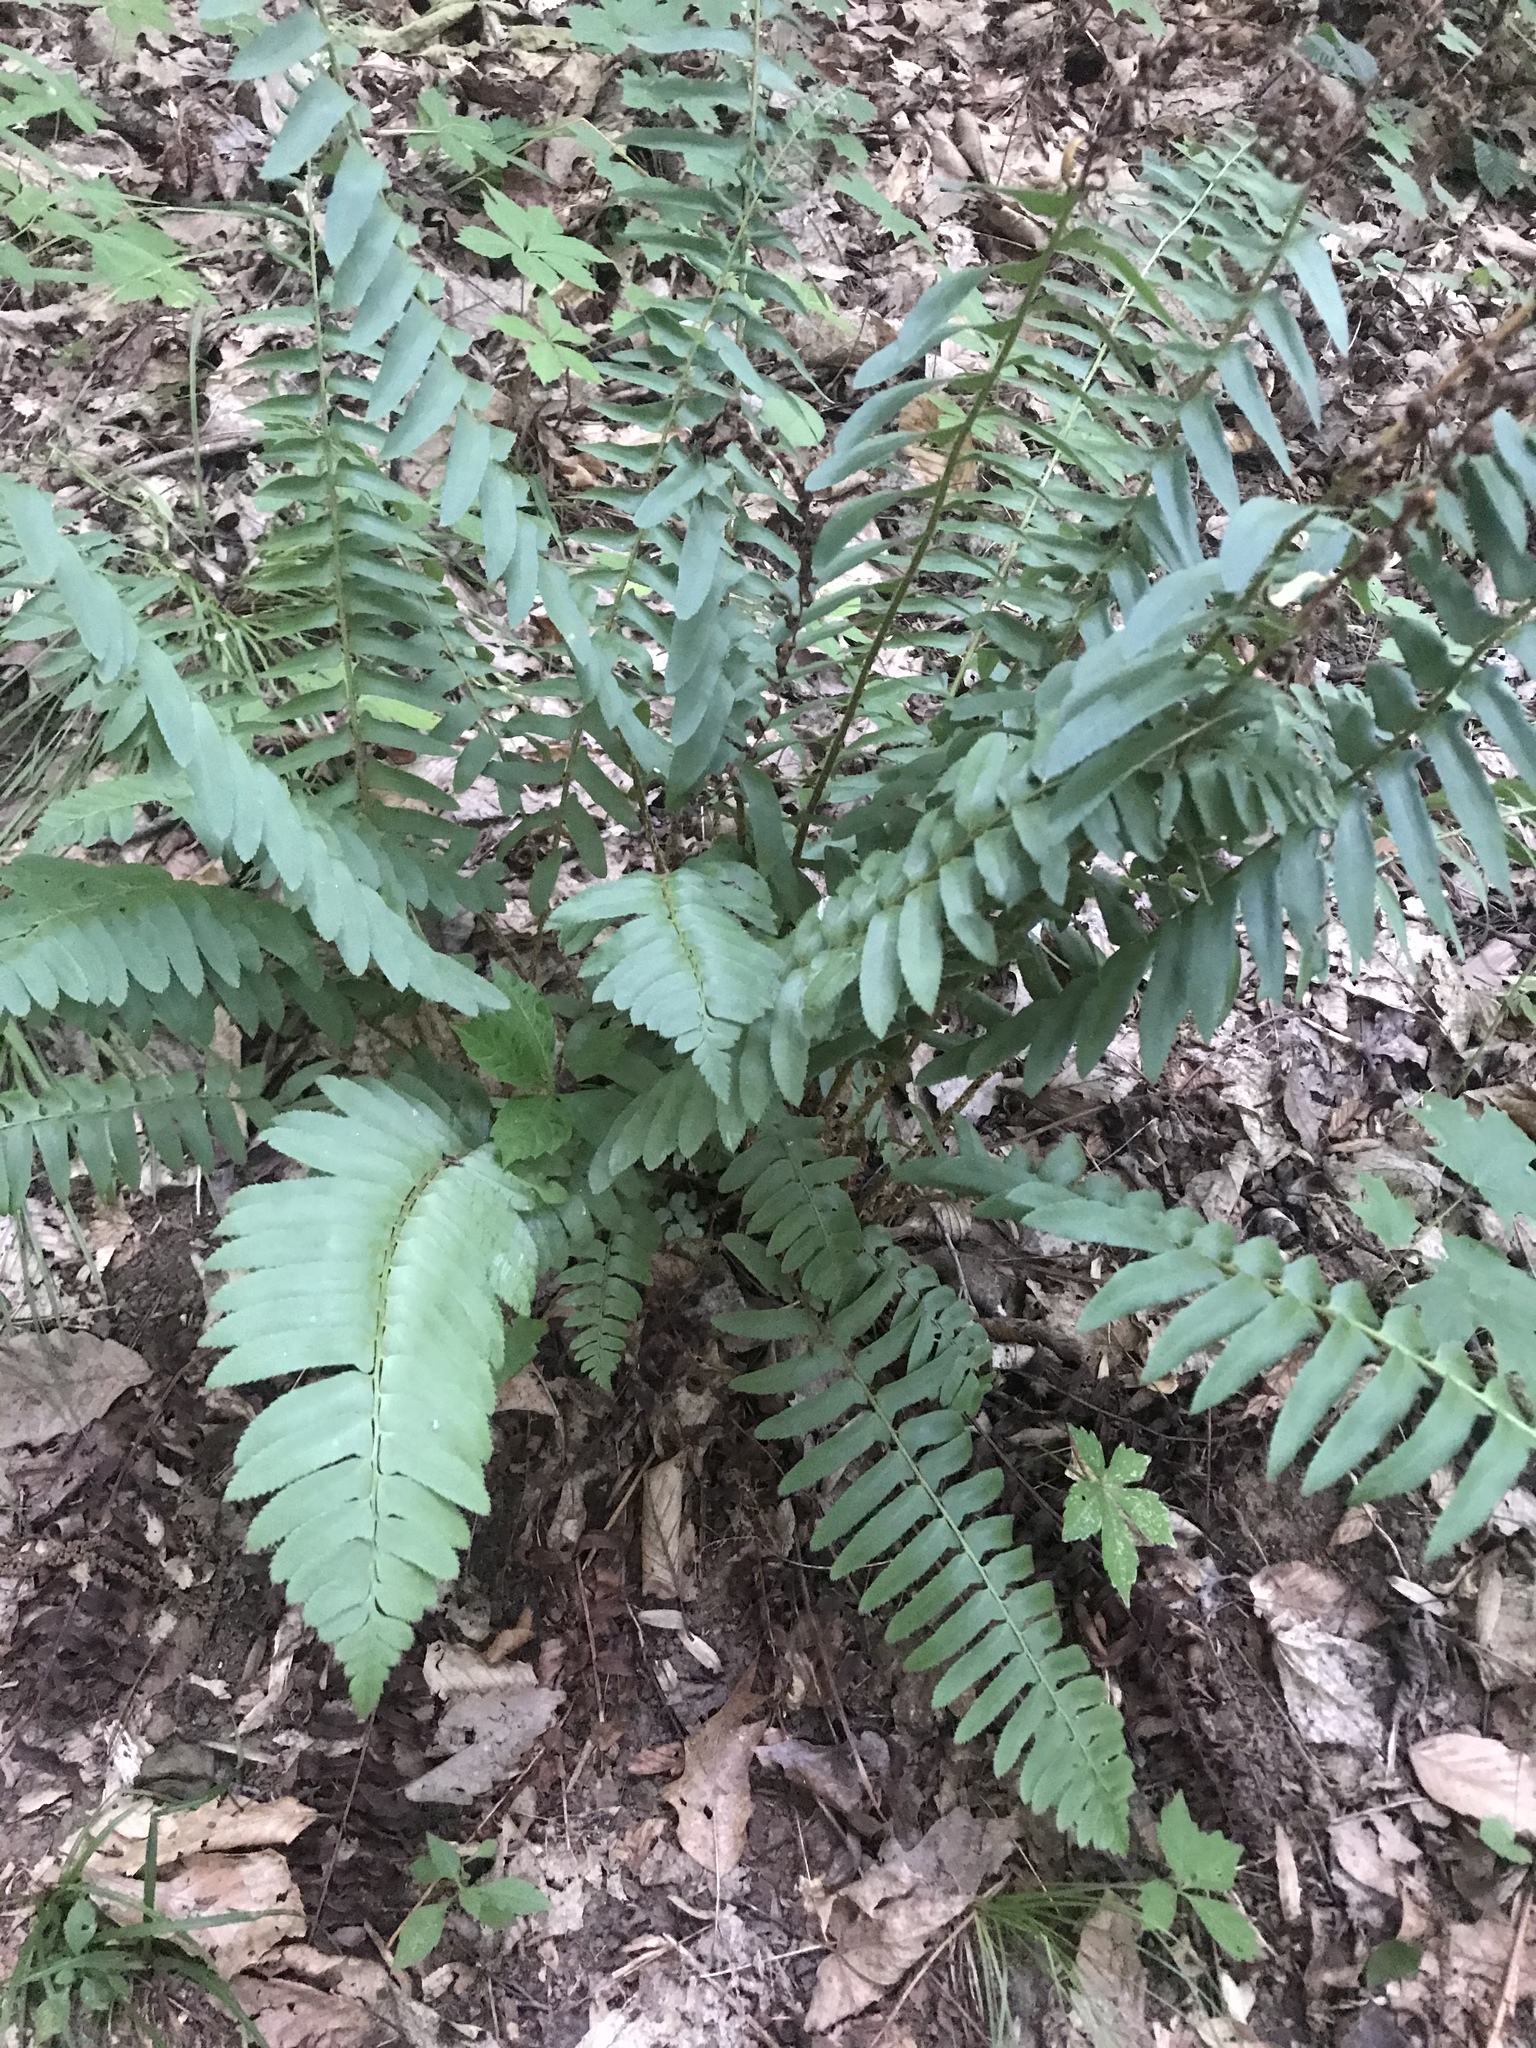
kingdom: Plantae
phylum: Tracheophyta
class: Polypodiopsida
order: Polypodiales
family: Dryopteridaceae
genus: Polystichum
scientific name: Polystichum acrostichoides
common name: Christmas fern
